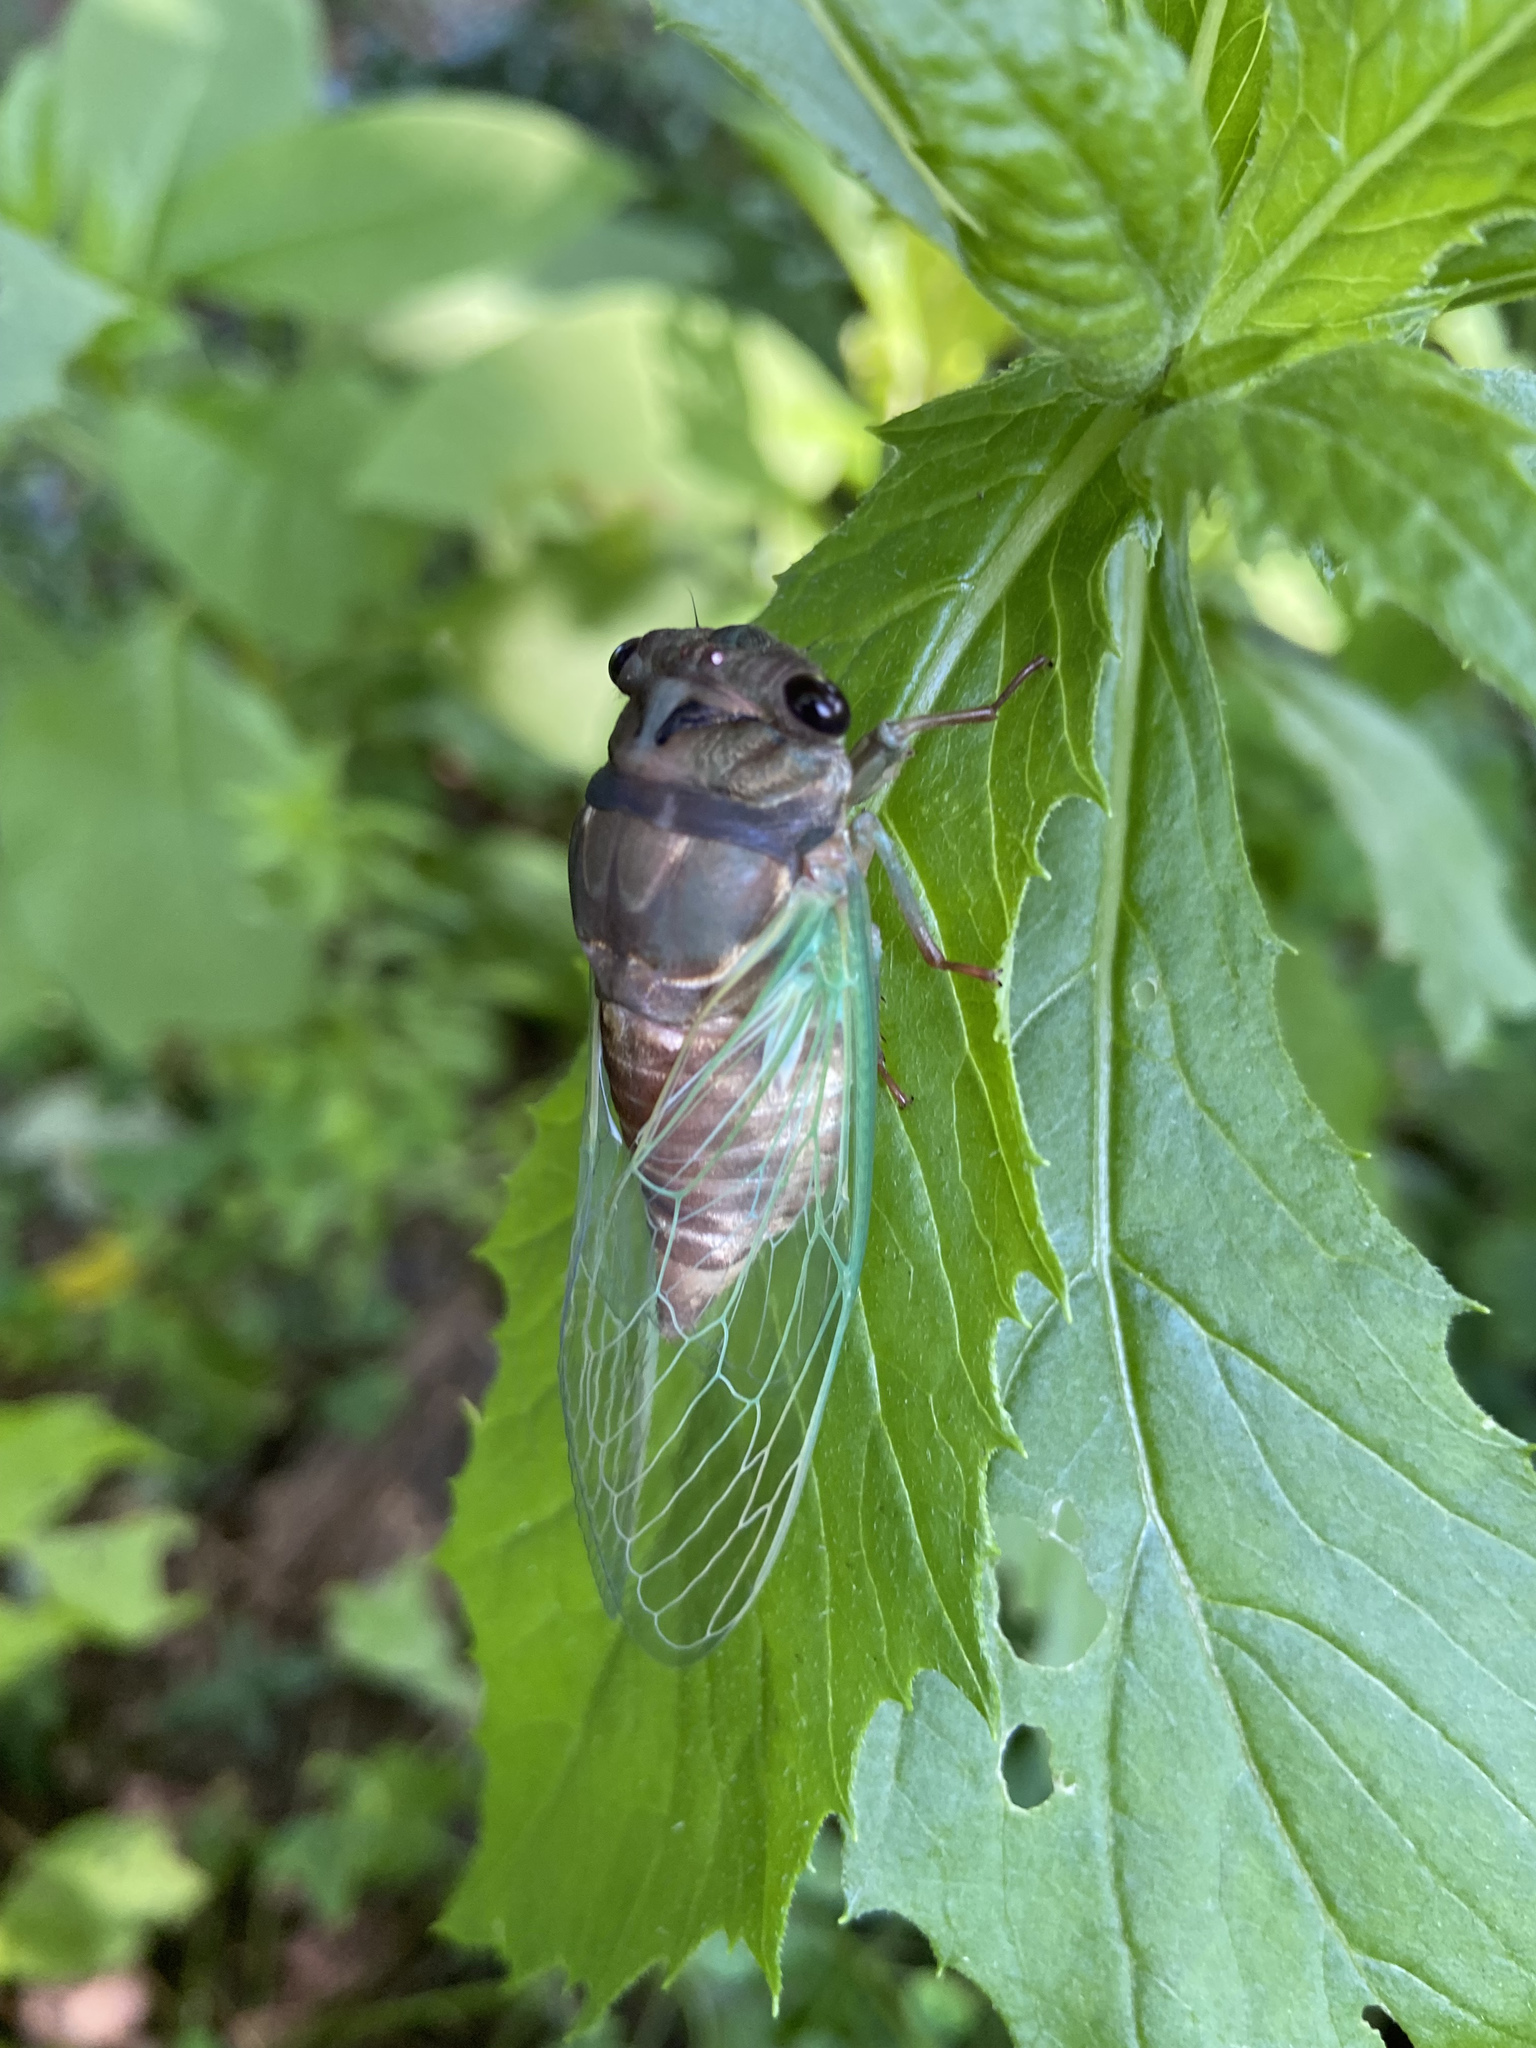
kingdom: Animalia
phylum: Arthropoda
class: Insecta
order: Hemiptera
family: Cicadidae
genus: Neotibicen
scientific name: Neotibicen lyricen
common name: Lyric cicada
